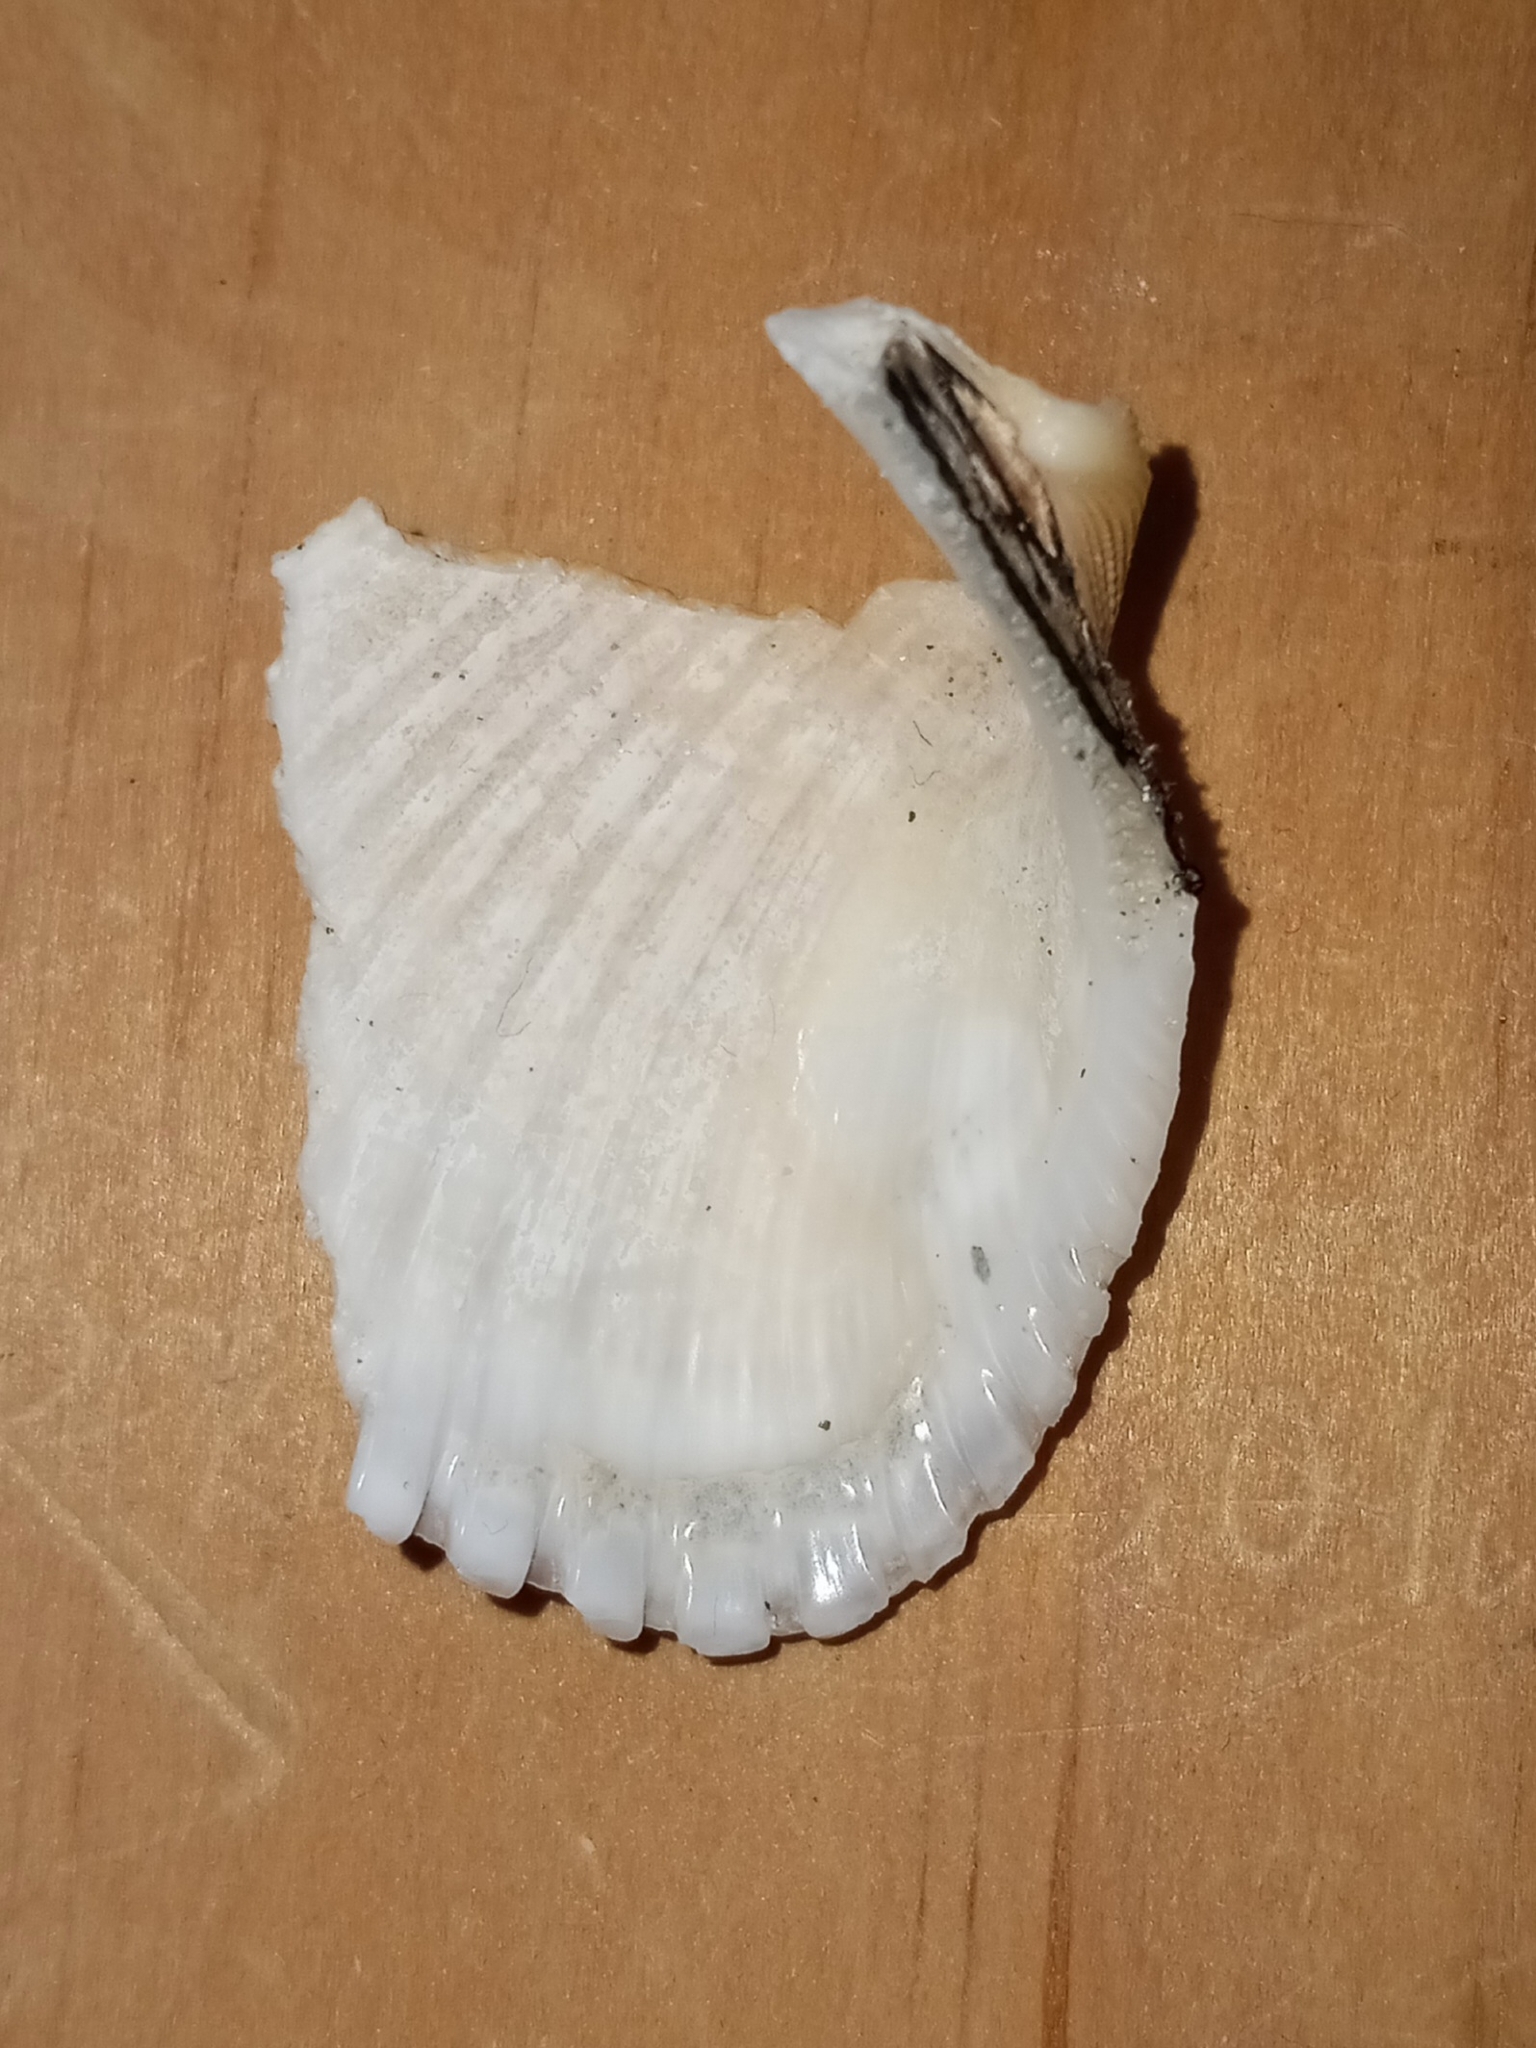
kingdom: Animalia
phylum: Mollusca
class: Bivalvia
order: Arcida
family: Arcidae
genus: Anadara
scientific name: Anadara brasiliana
